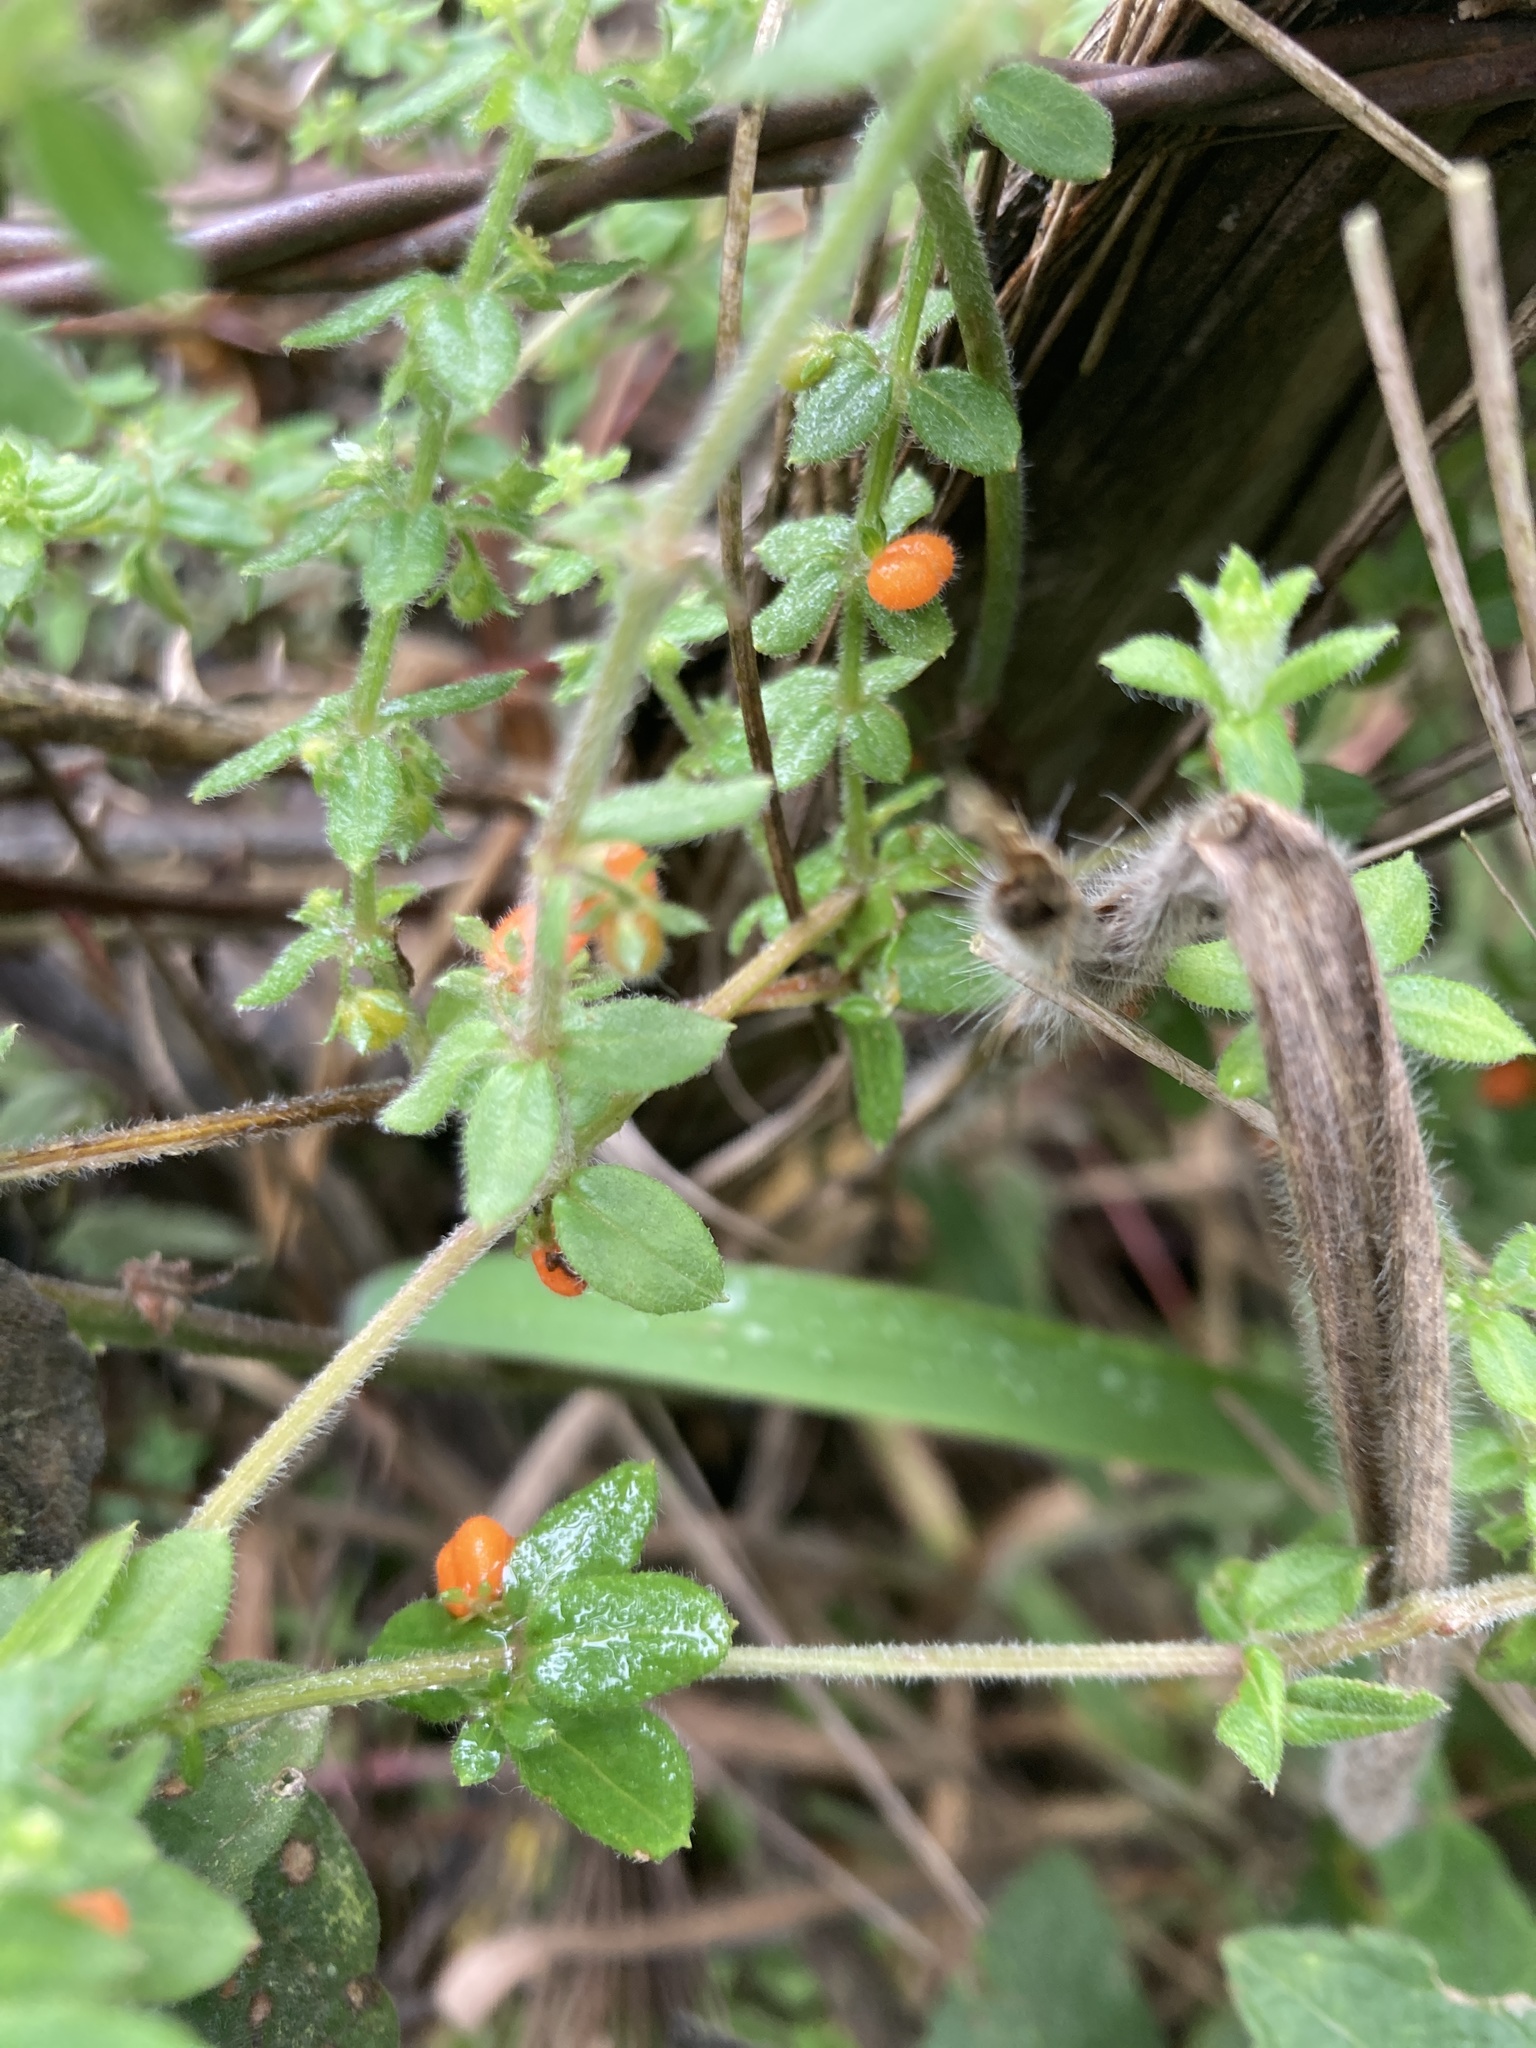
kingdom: Plantae
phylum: Tracheophyta
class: Magnoliopsida
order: Gentianales
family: Rubiaceae
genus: Galium
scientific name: Galium hypocarpium
